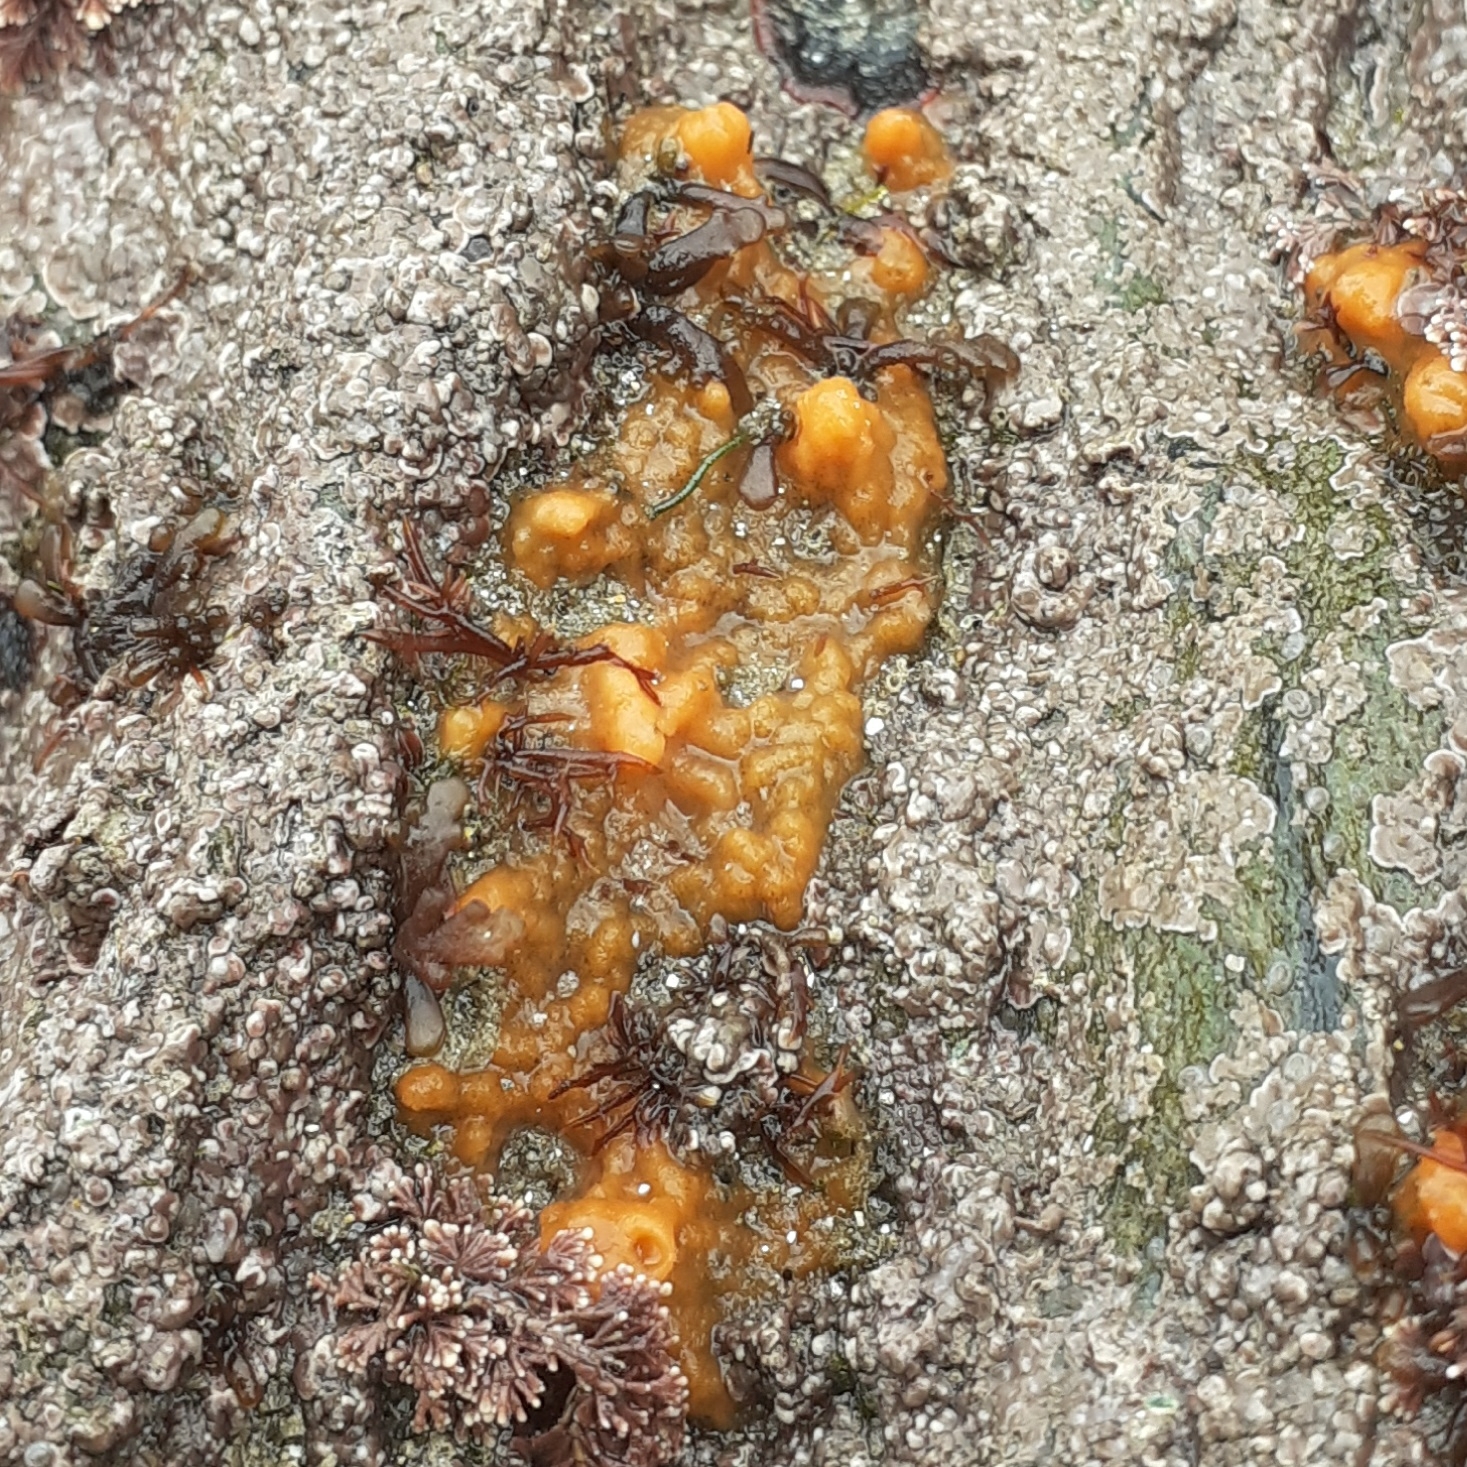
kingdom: Animalia
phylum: Porifera
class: Demospongiae
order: Suberitida
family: Halichondriidae
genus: Hymeniacidon
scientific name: Hymeniacidon perlevis
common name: Crumb-of-bread sponge
